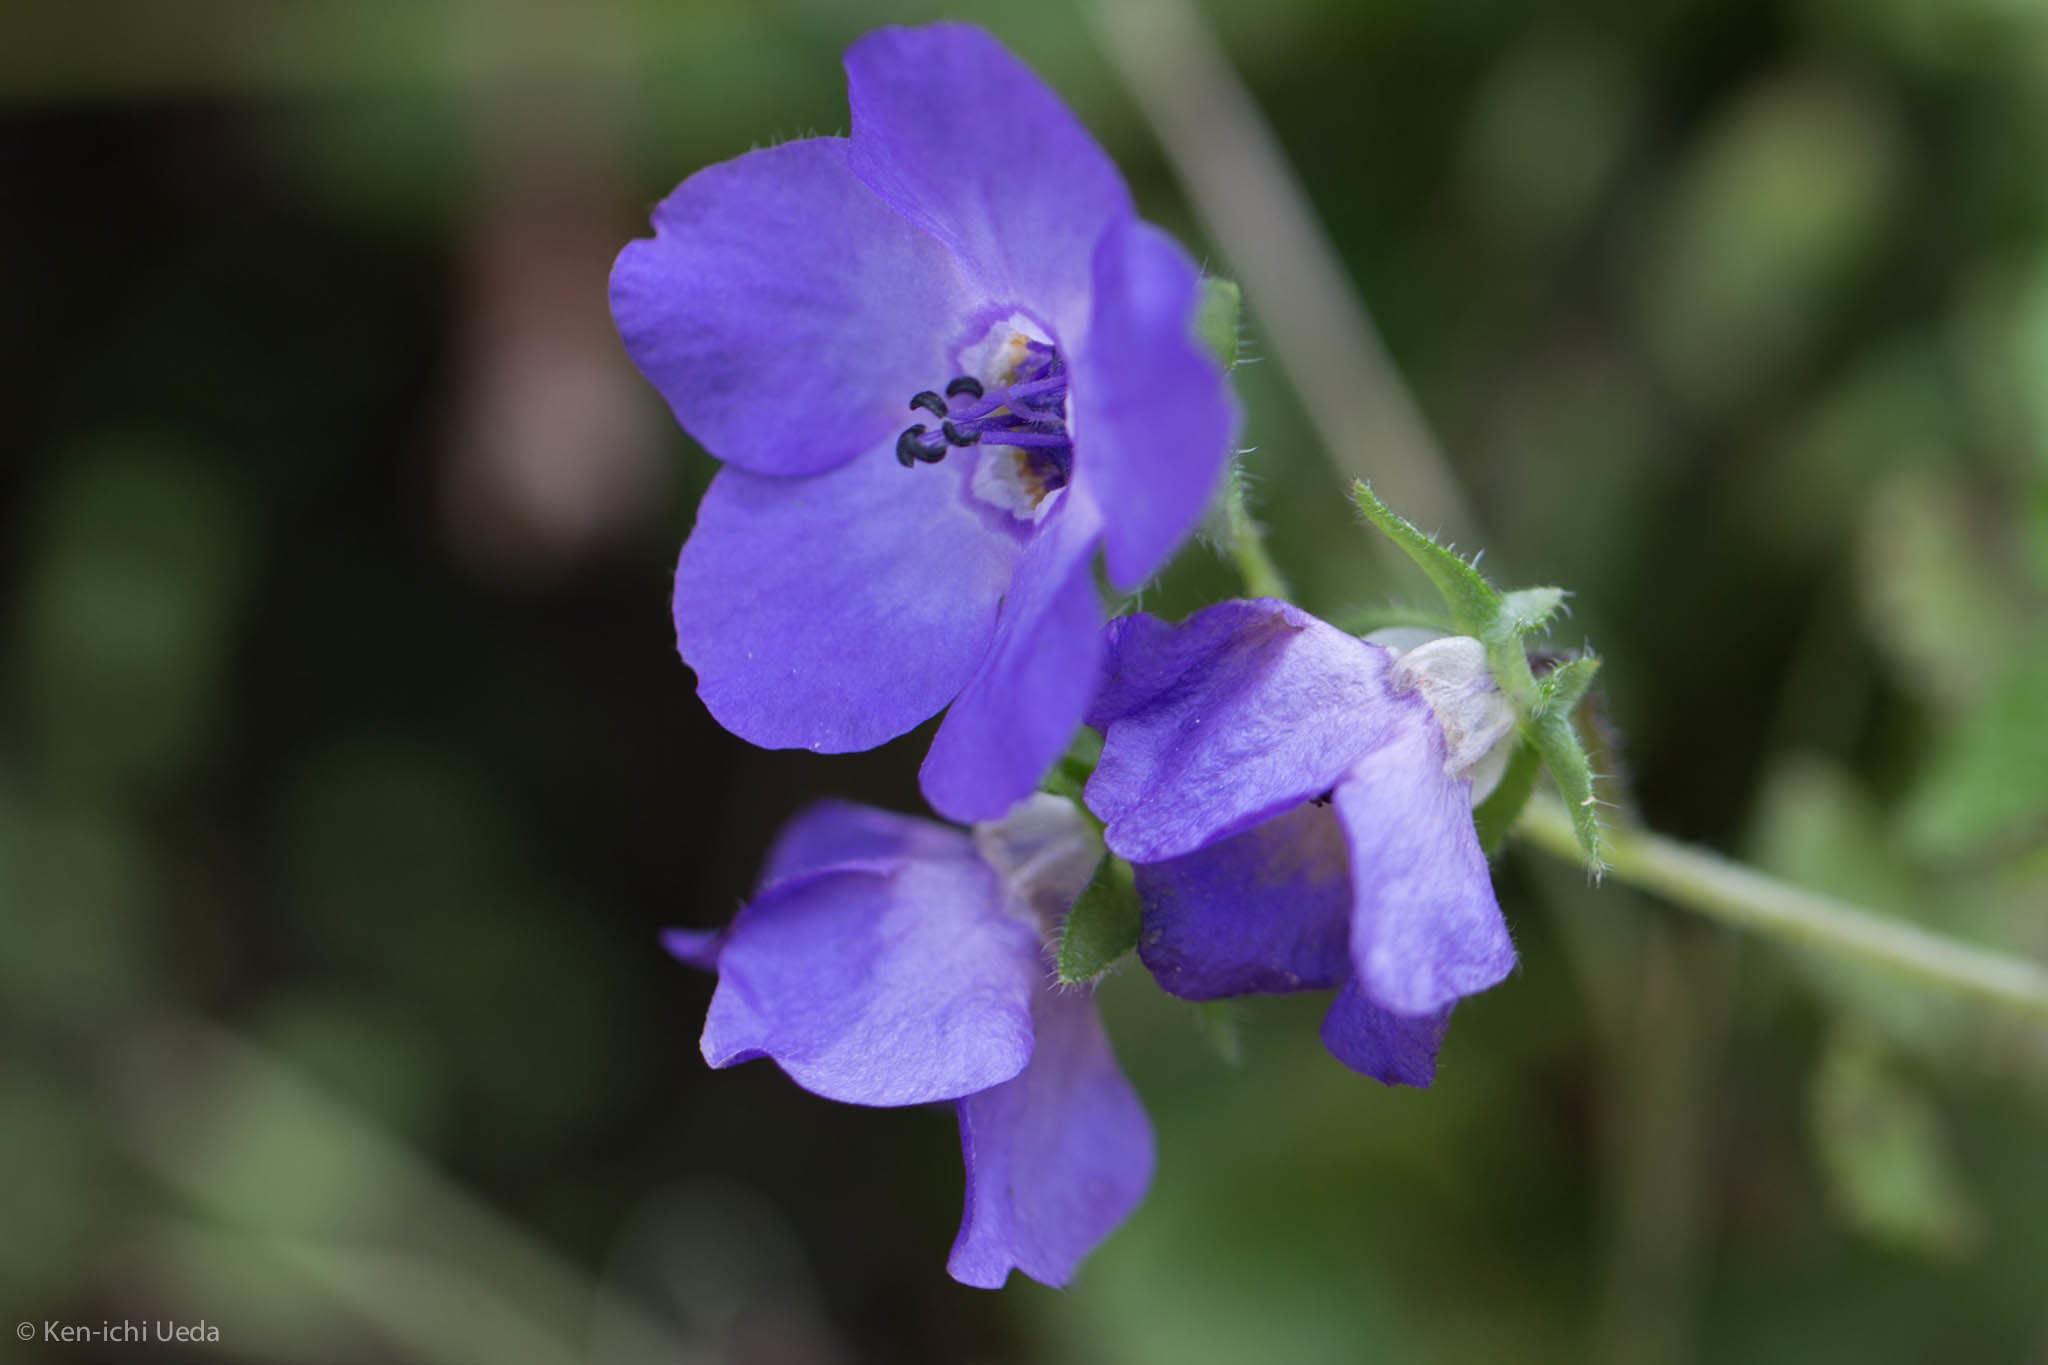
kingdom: Plantae
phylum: Tracheophyta
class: Magnoliopsida
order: Boraginales
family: Hydrophyllaceae
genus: Pholistoma
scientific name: Pholistoma auritum
